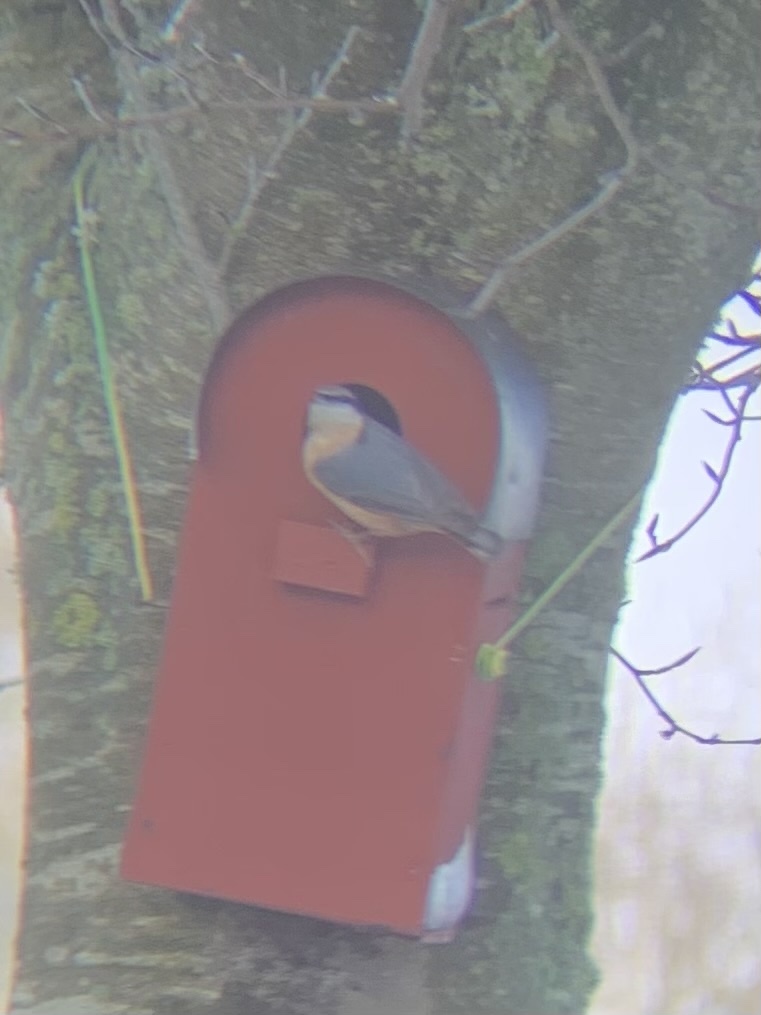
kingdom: Animalia
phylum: Chordata
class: Aves
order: Passeriformes
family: Sittidae
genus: Sitta
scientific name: Sitta europaea
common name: Eurasian nuthatch
